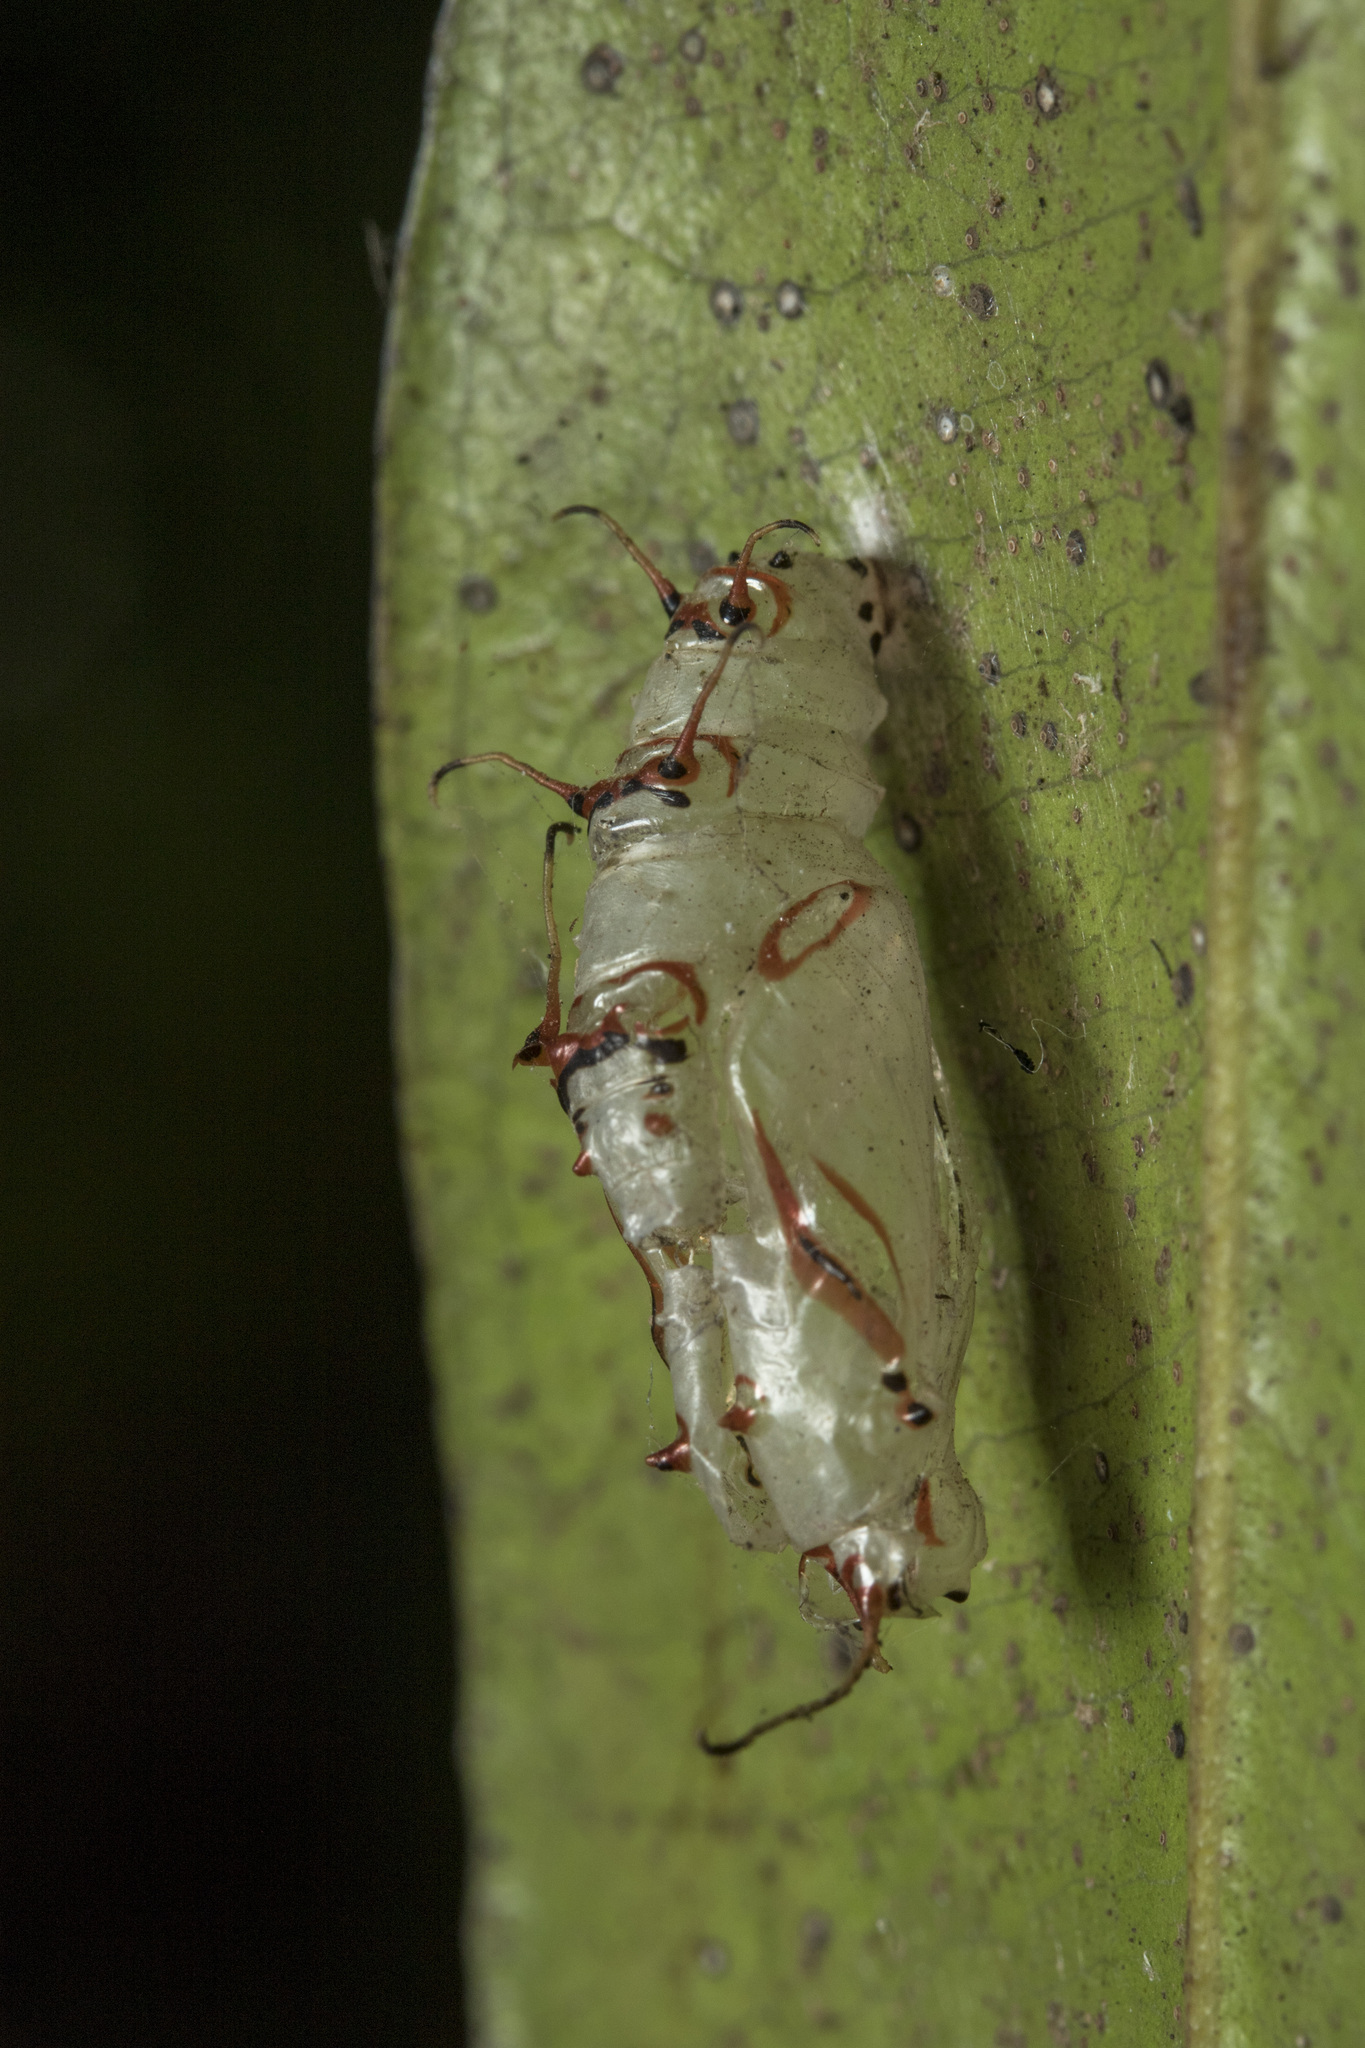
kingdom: Animalia
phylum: Arthropoda
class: Insecta
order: Lepidoptera
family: Nymphalidae
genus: Cupha
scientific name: Cupha erymanthis
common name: Rustic
